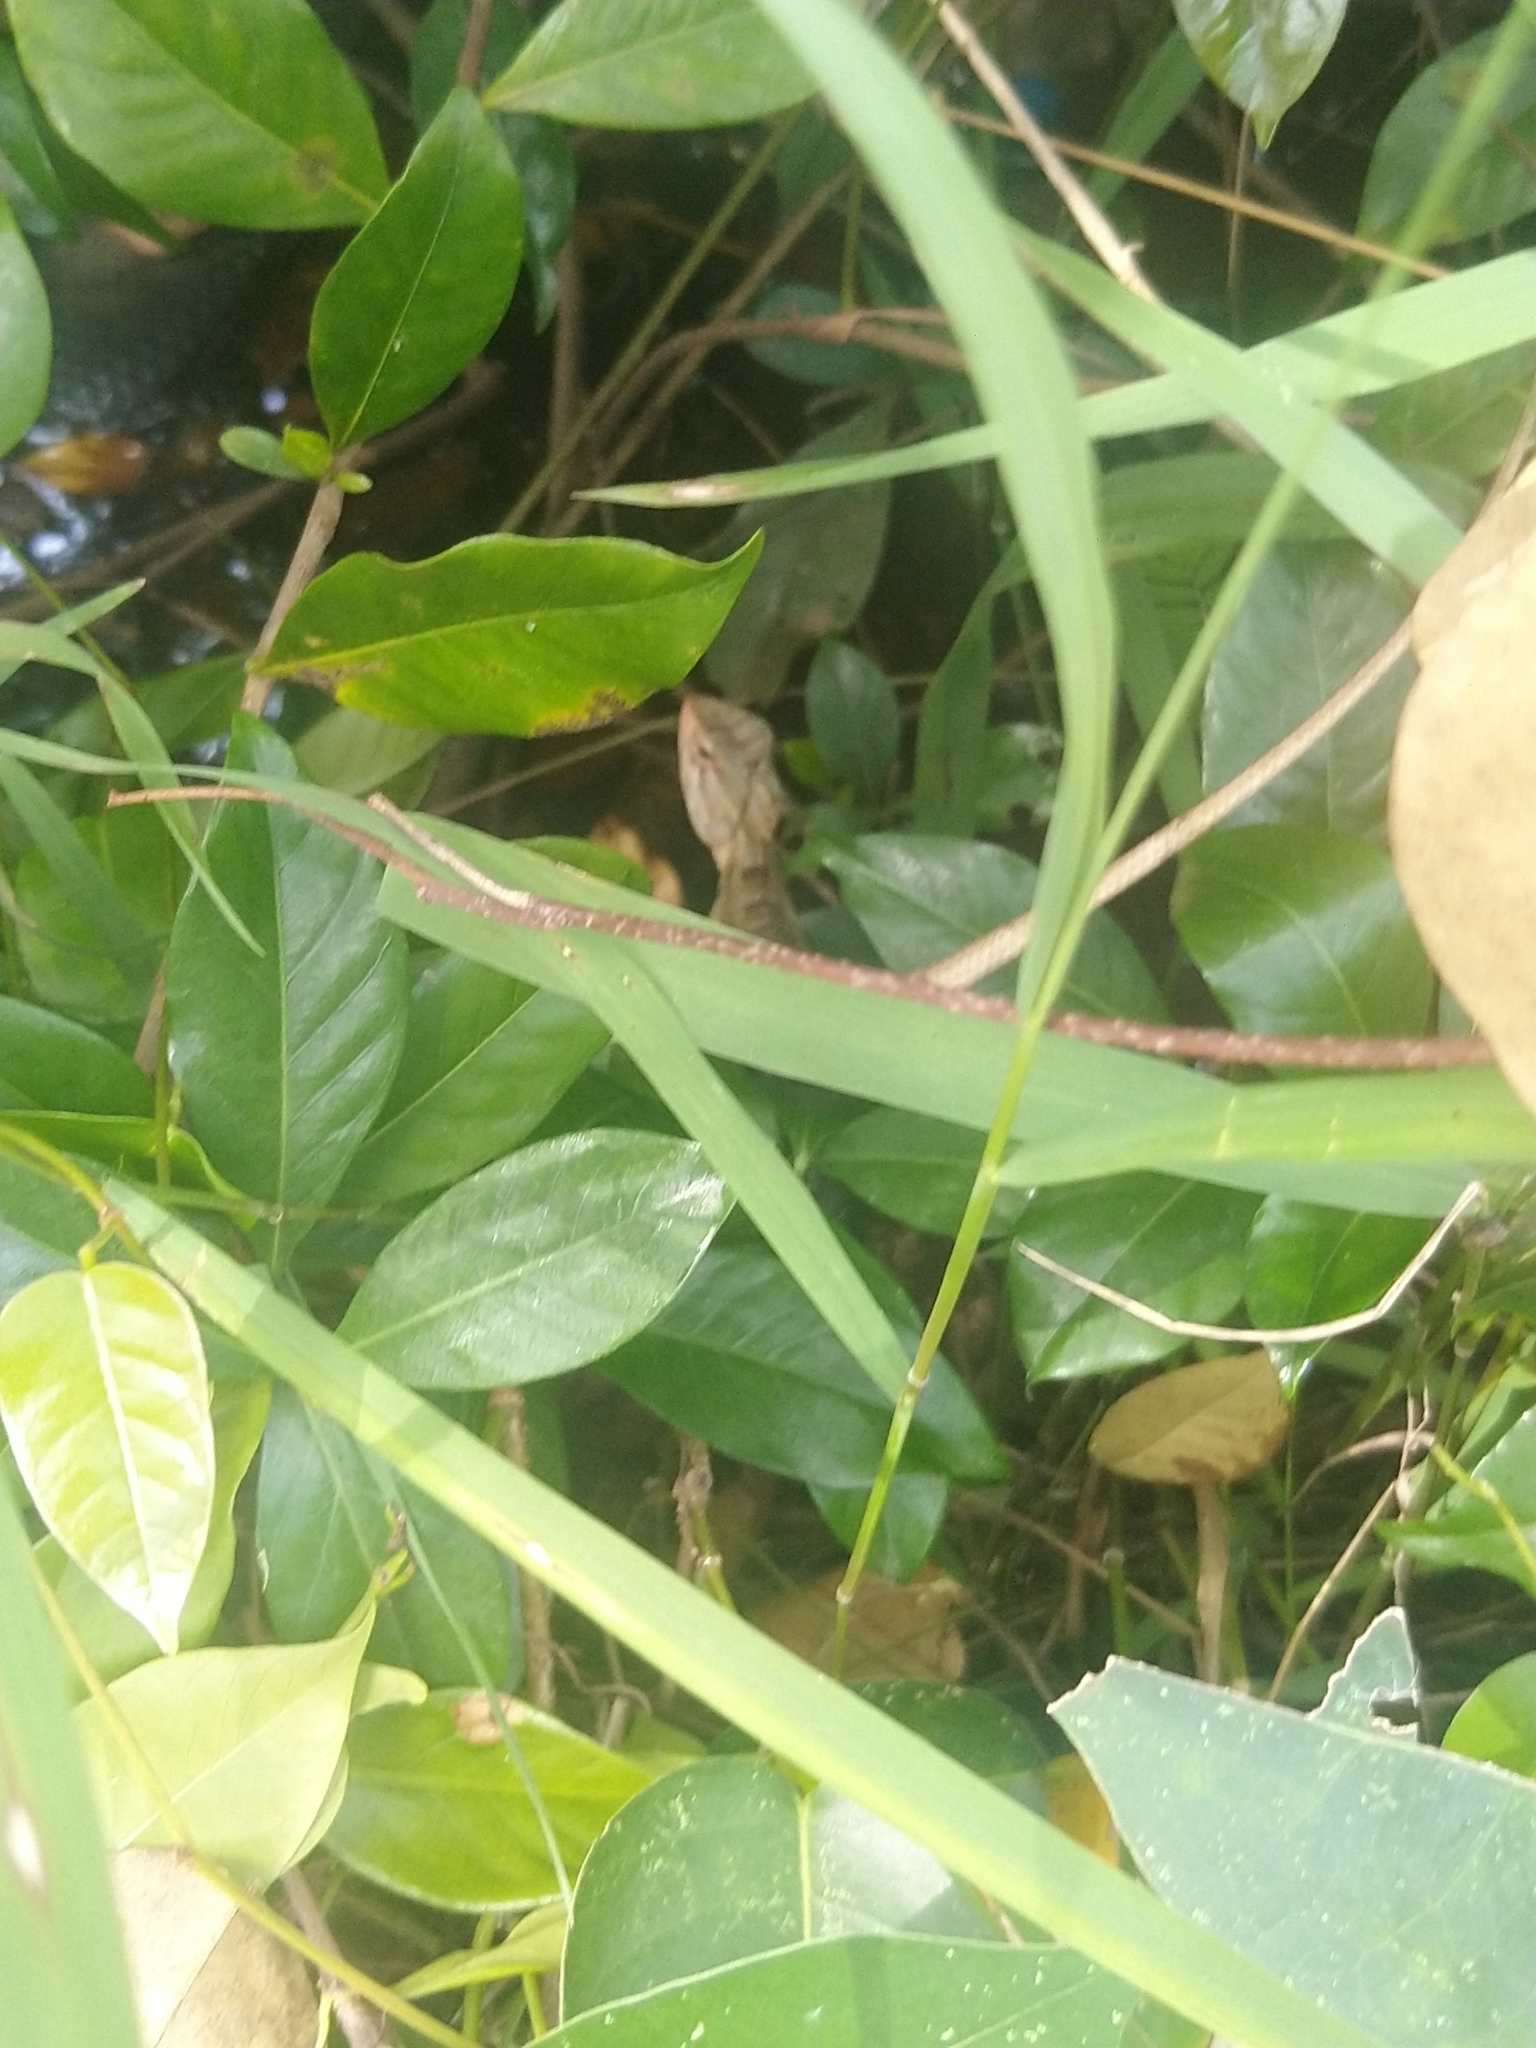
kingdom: Animalia
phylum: Chordata
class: Squamata
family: Agamidae
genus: Calotes
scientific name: Calotes versicolor
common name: Oriental garden lizard
